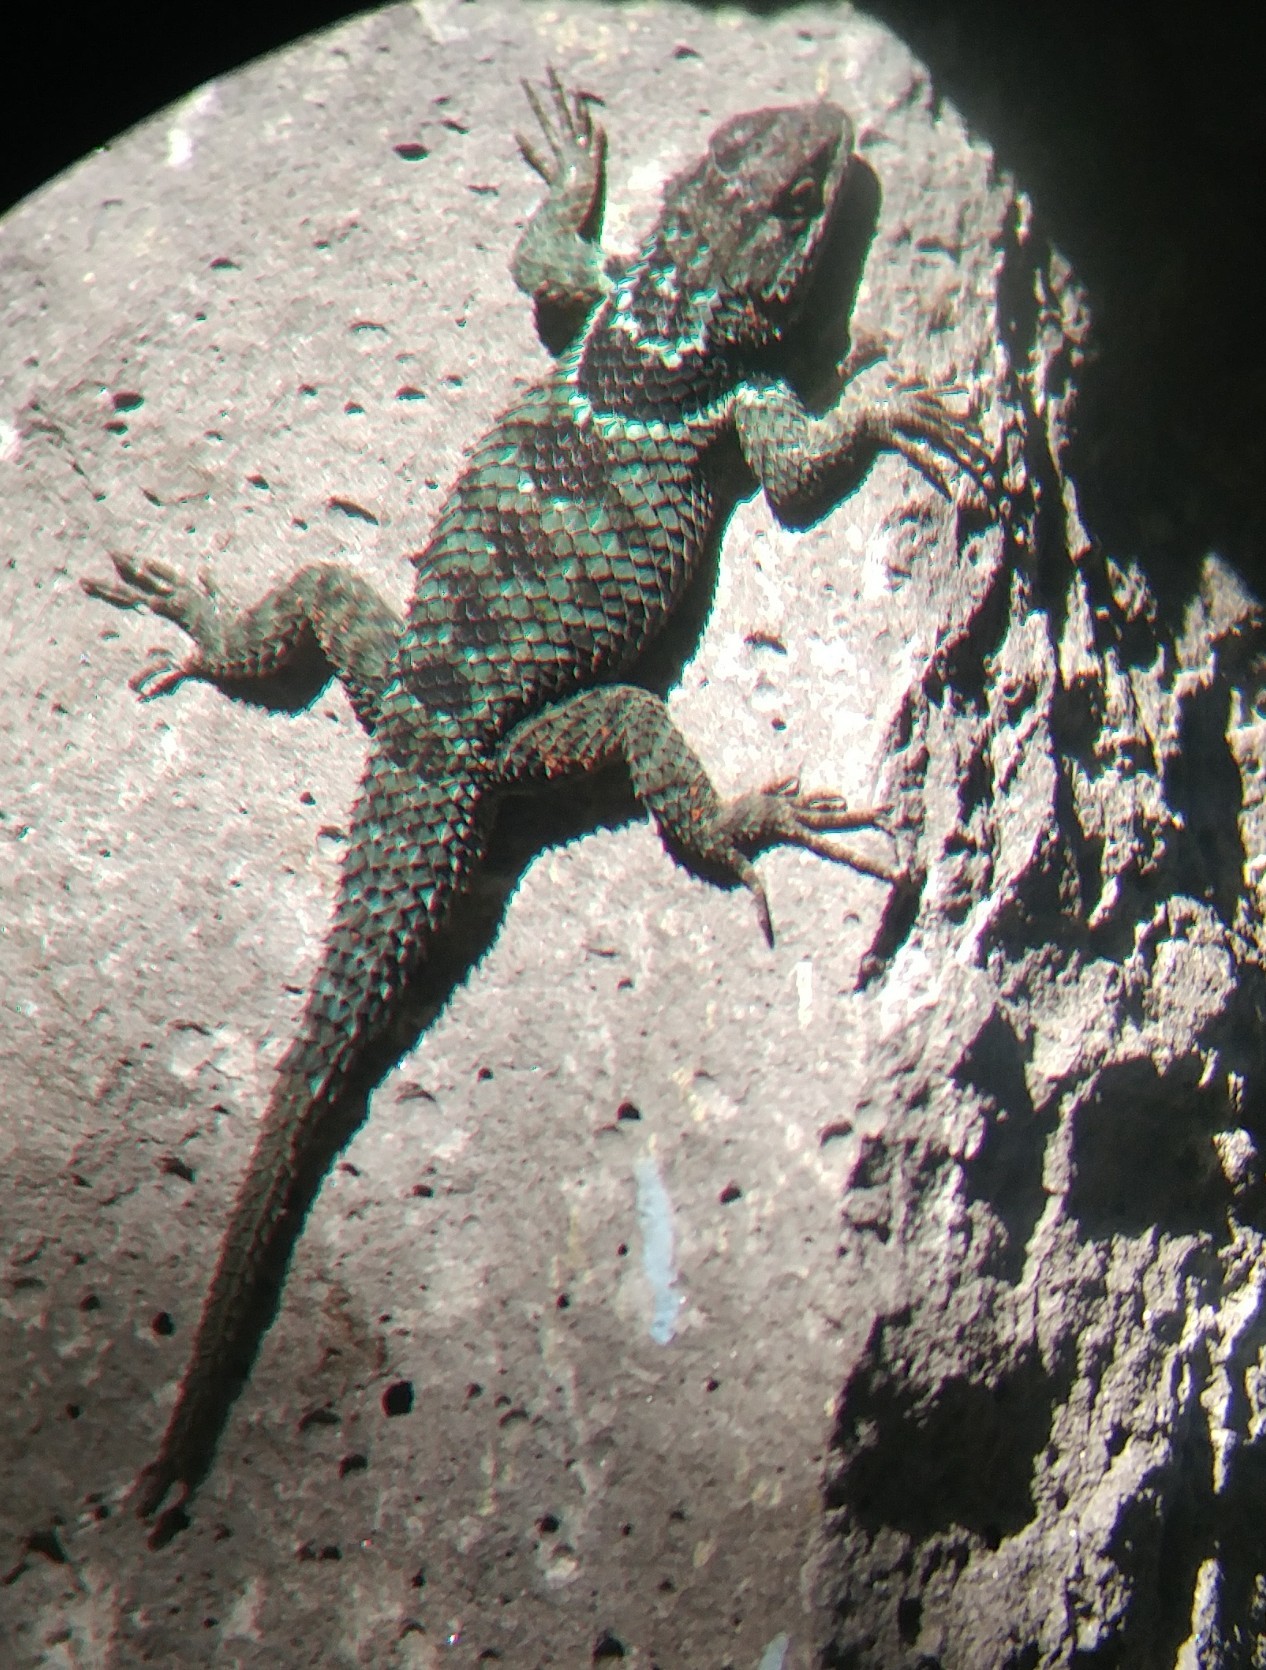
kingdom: Animalia
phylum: Chordata
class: Squamata
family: Phrynosomatidae
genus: Sceloporus
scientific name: Sceloporus torquatus
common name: Central plateau torquate lizard [melanogaster]
